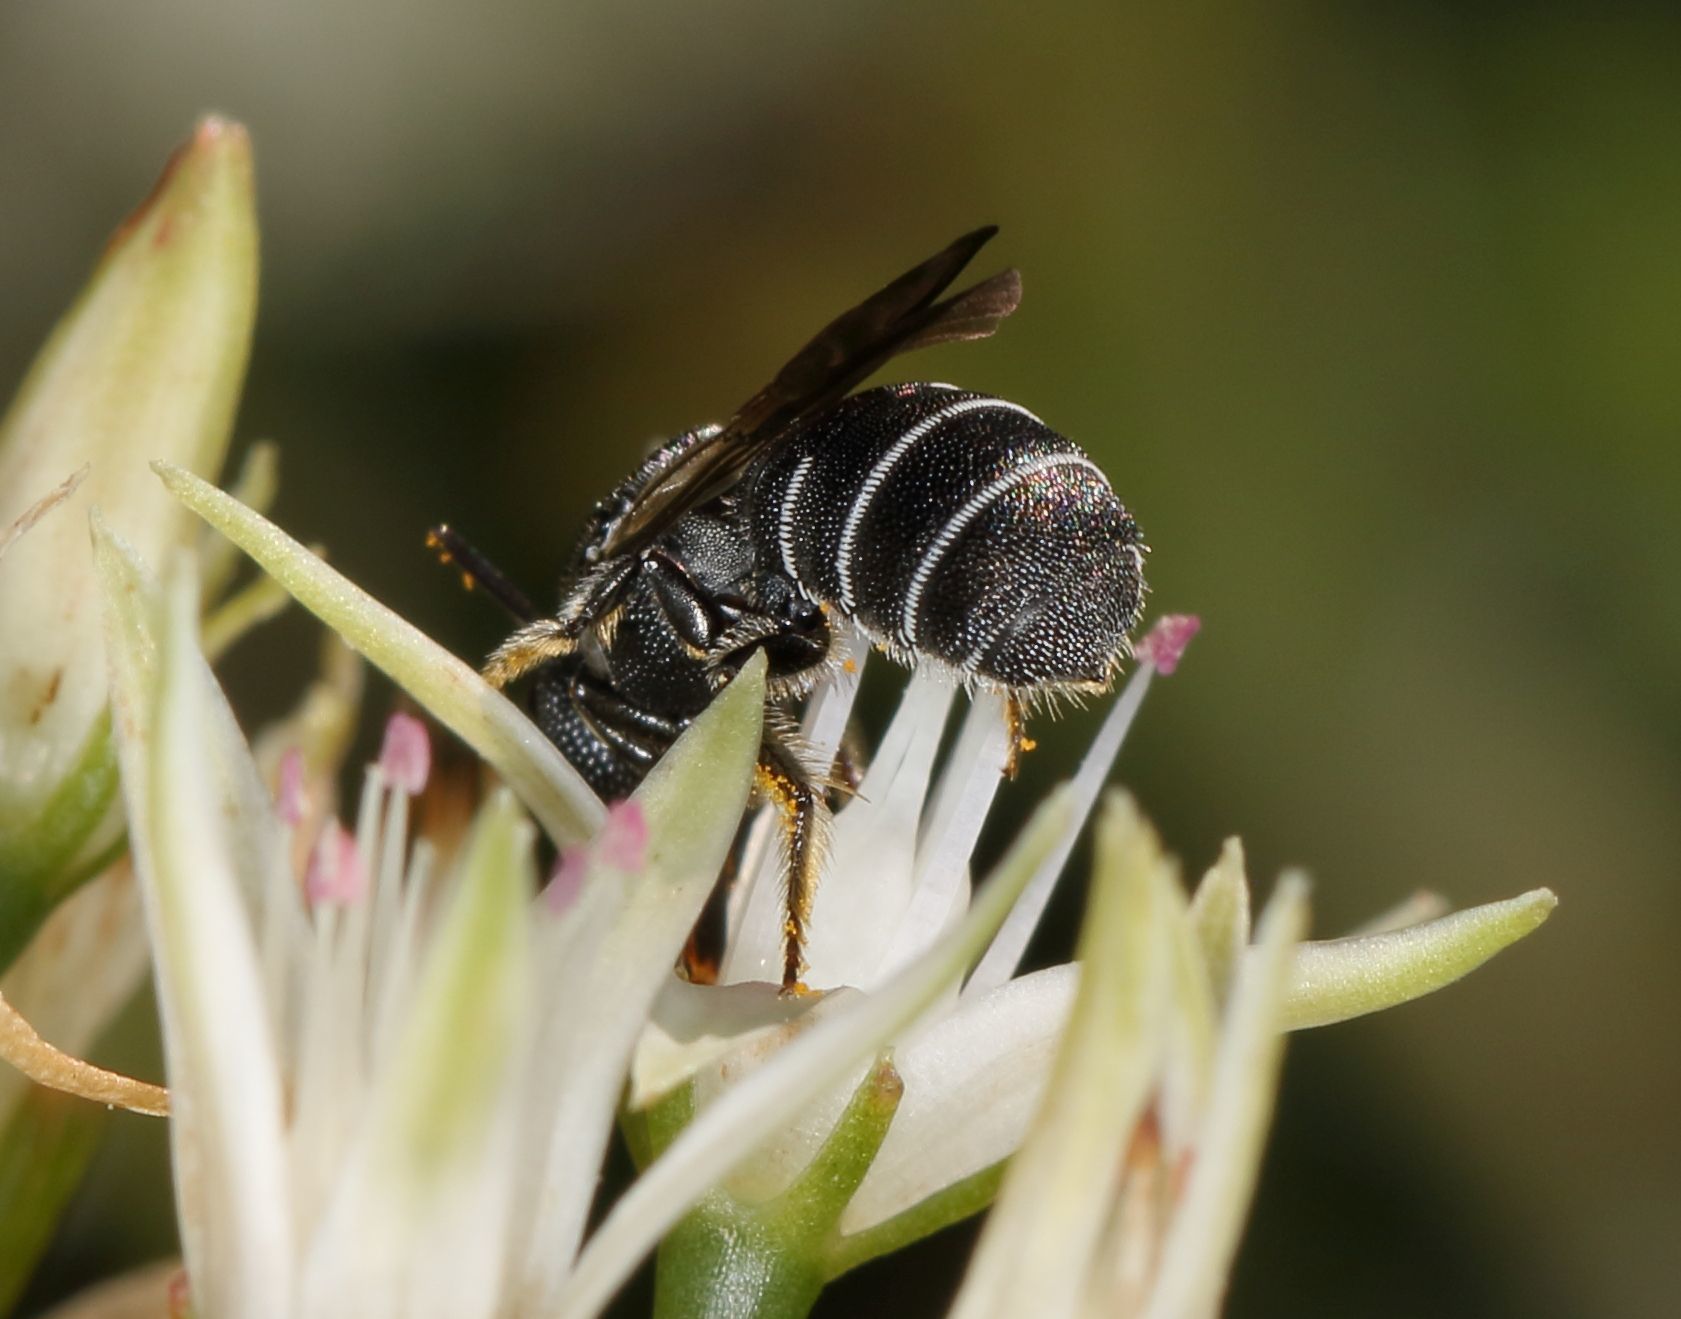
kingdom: Animalia
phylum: Arthropoda
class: Insecta
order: Hymenoptera
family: Apidae
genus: Ceratina
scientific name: Ceratina moerenhouti
